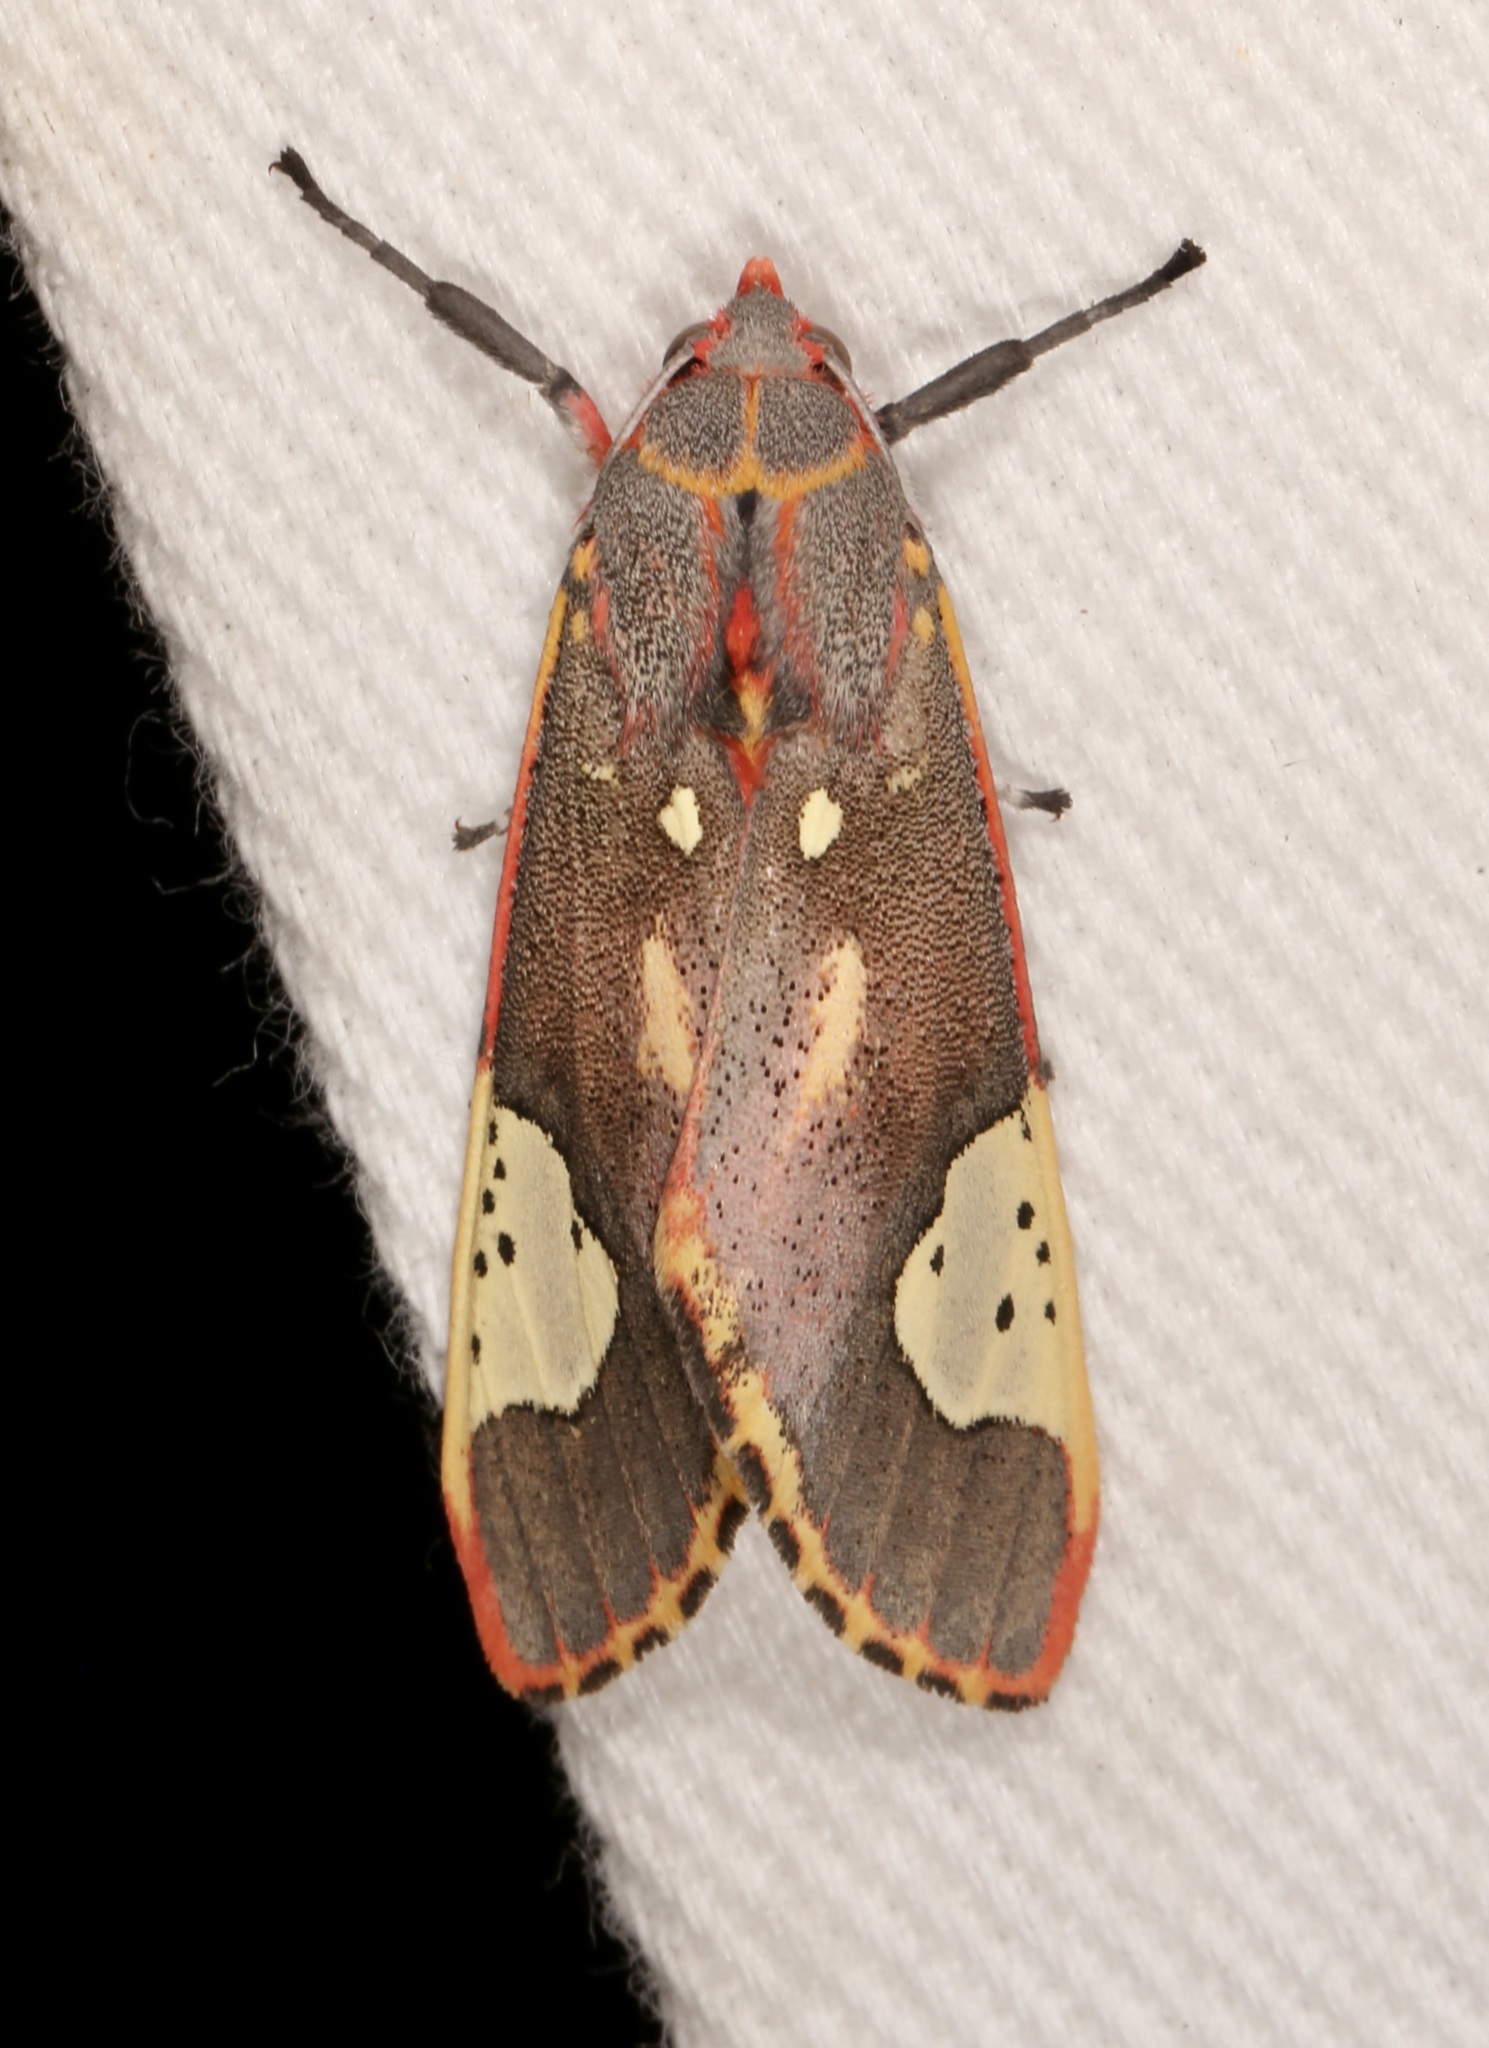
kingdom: Animalia
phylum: Arthropoda
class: Insecta
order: Lepidoptera
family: Erebidae
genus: Bertholdia
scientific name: Bertholdia trigona
